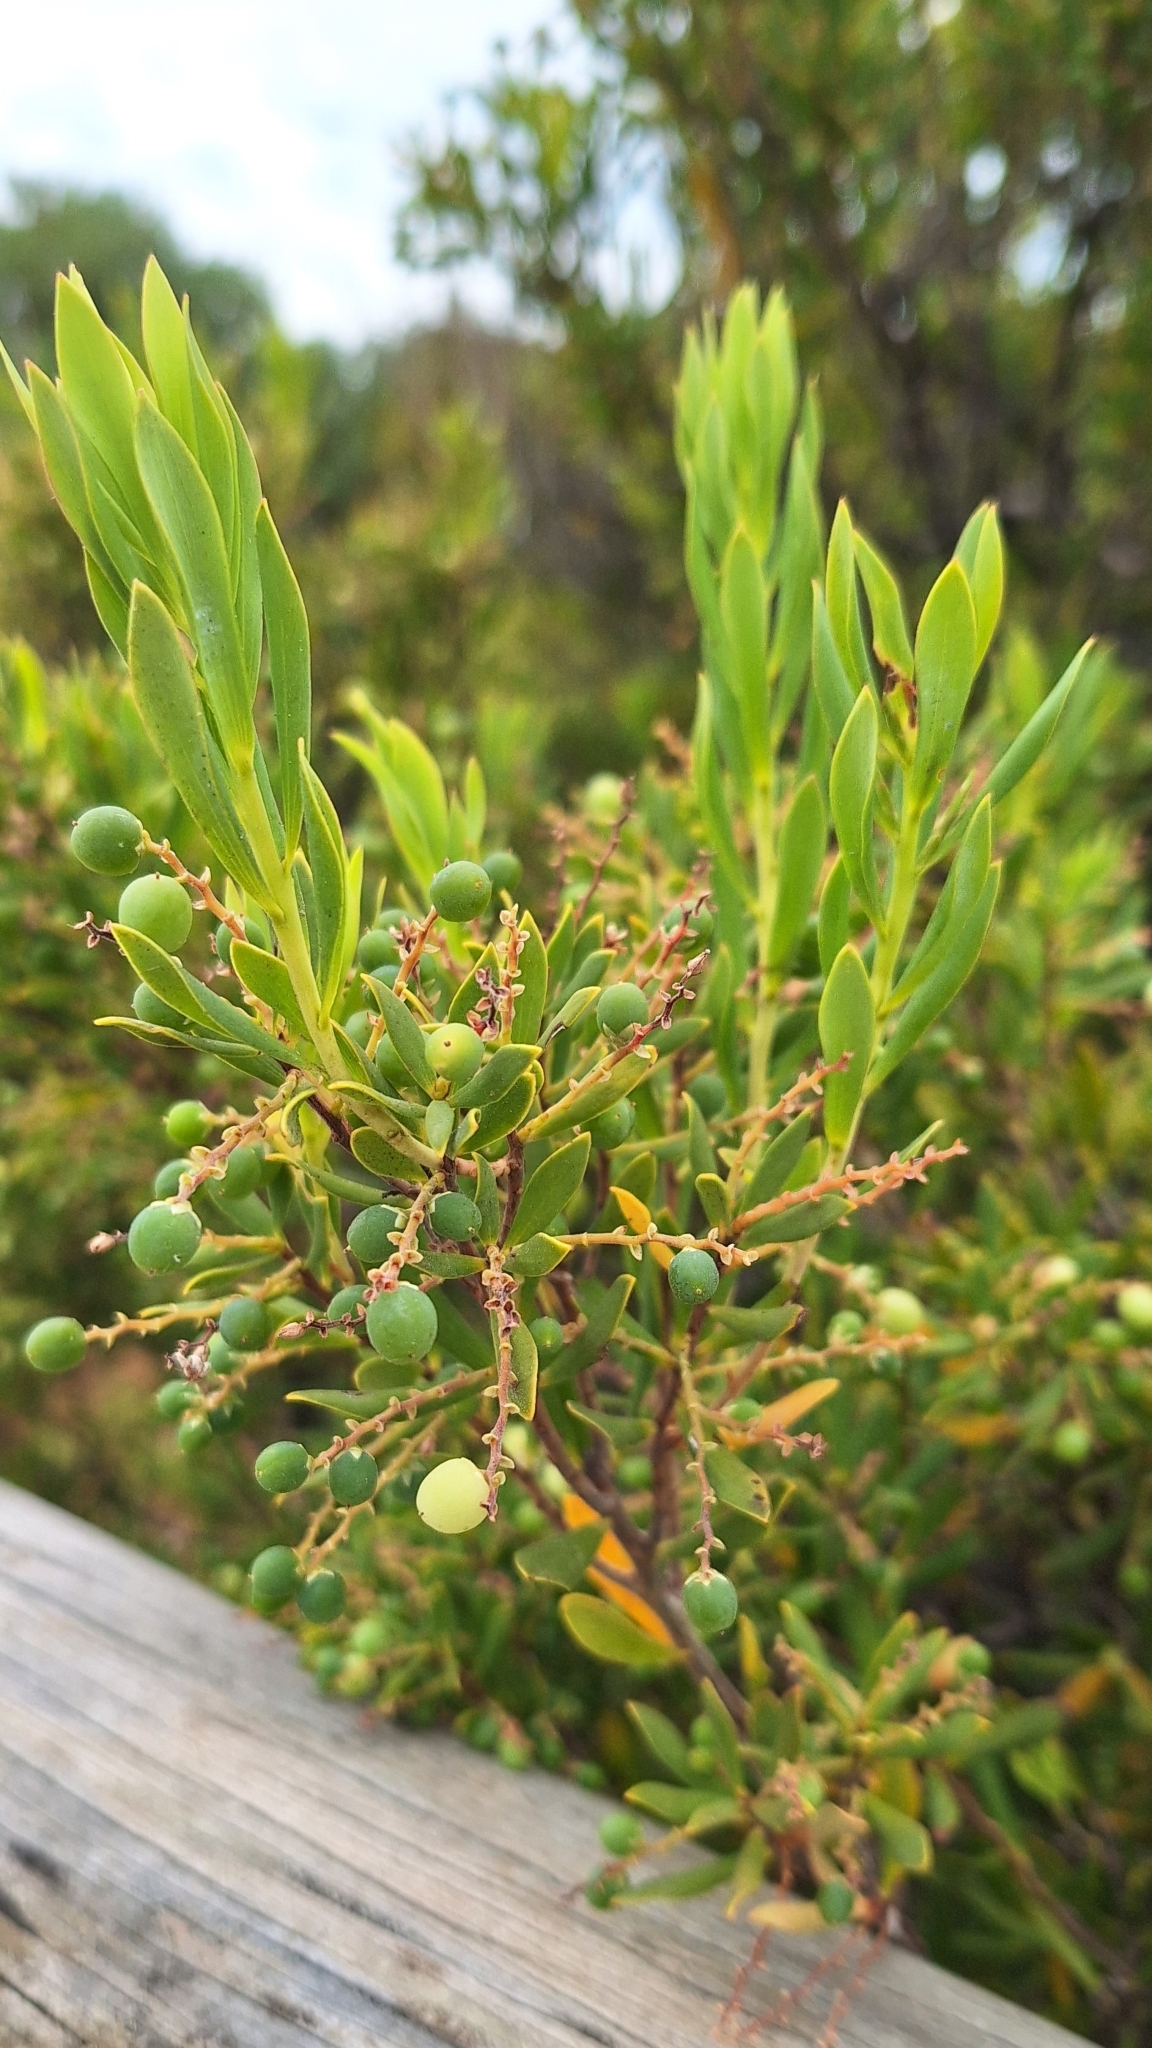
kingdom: Plantae
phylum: Tracheophyta
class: Magnoliopsida
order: Ericales
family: Ericaceae
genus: Leptecophylla
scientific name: Leptecophylla parvifolia
